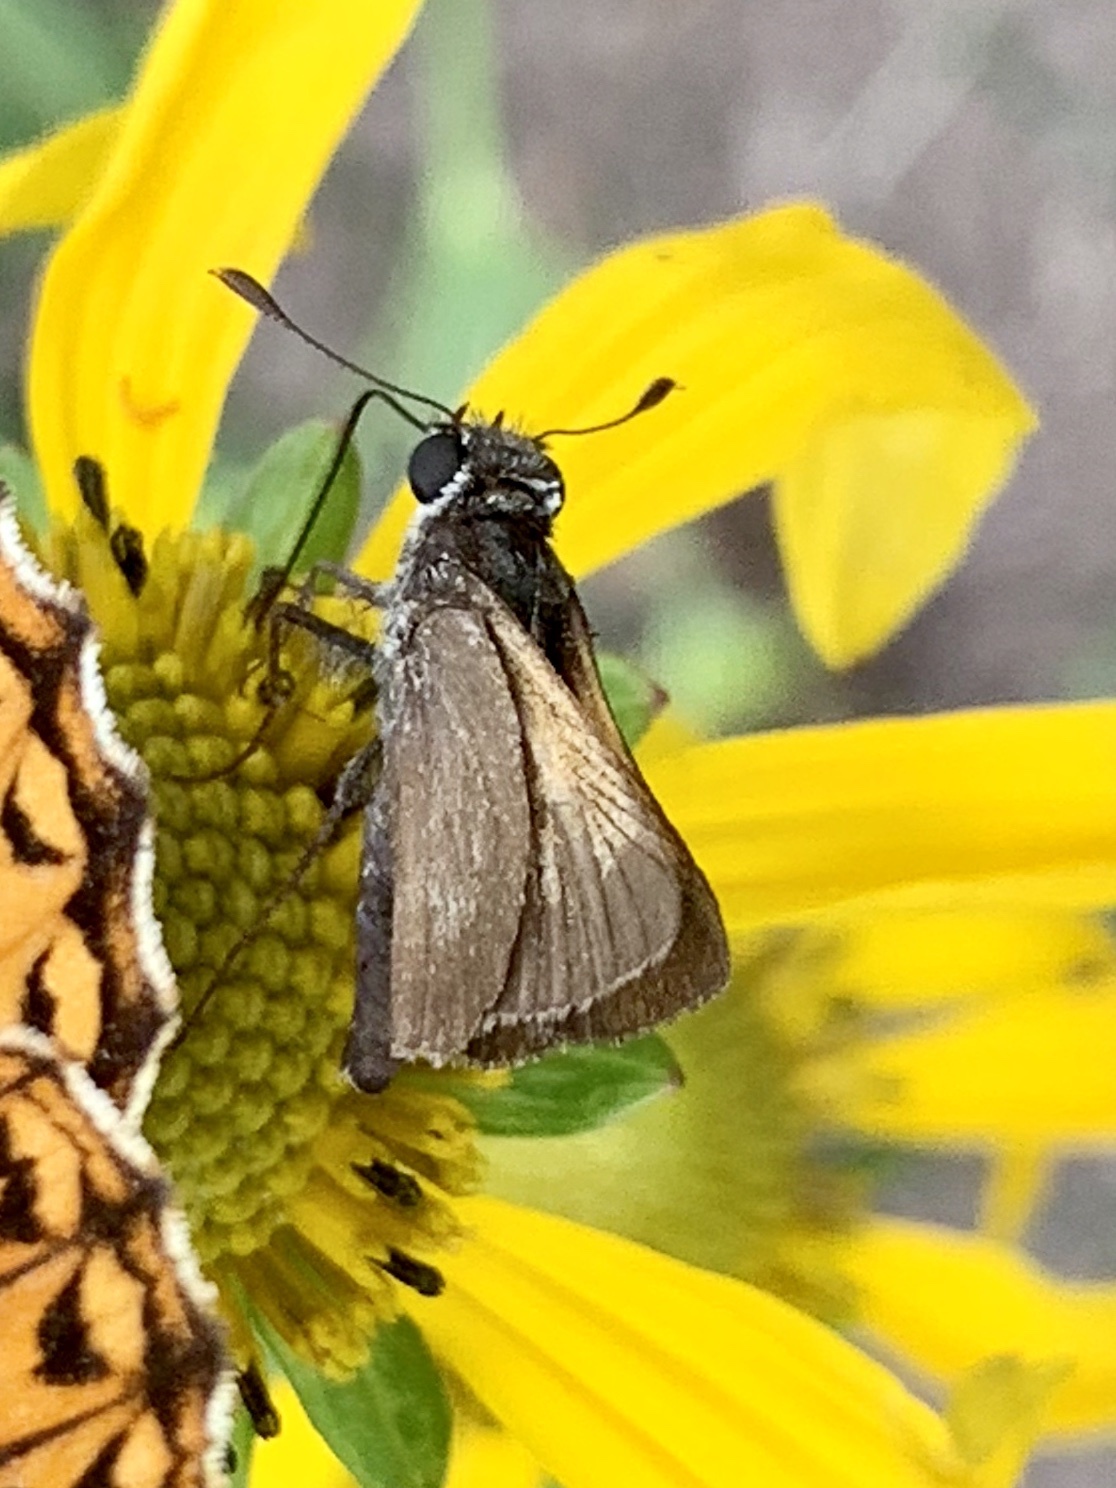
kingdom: Animalia
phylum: Arthropoda
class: Insecta
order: Lepidoptera
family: Hesperiidae
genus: Polites
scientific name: Polites themistocles
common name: Tawny-edged skipper
